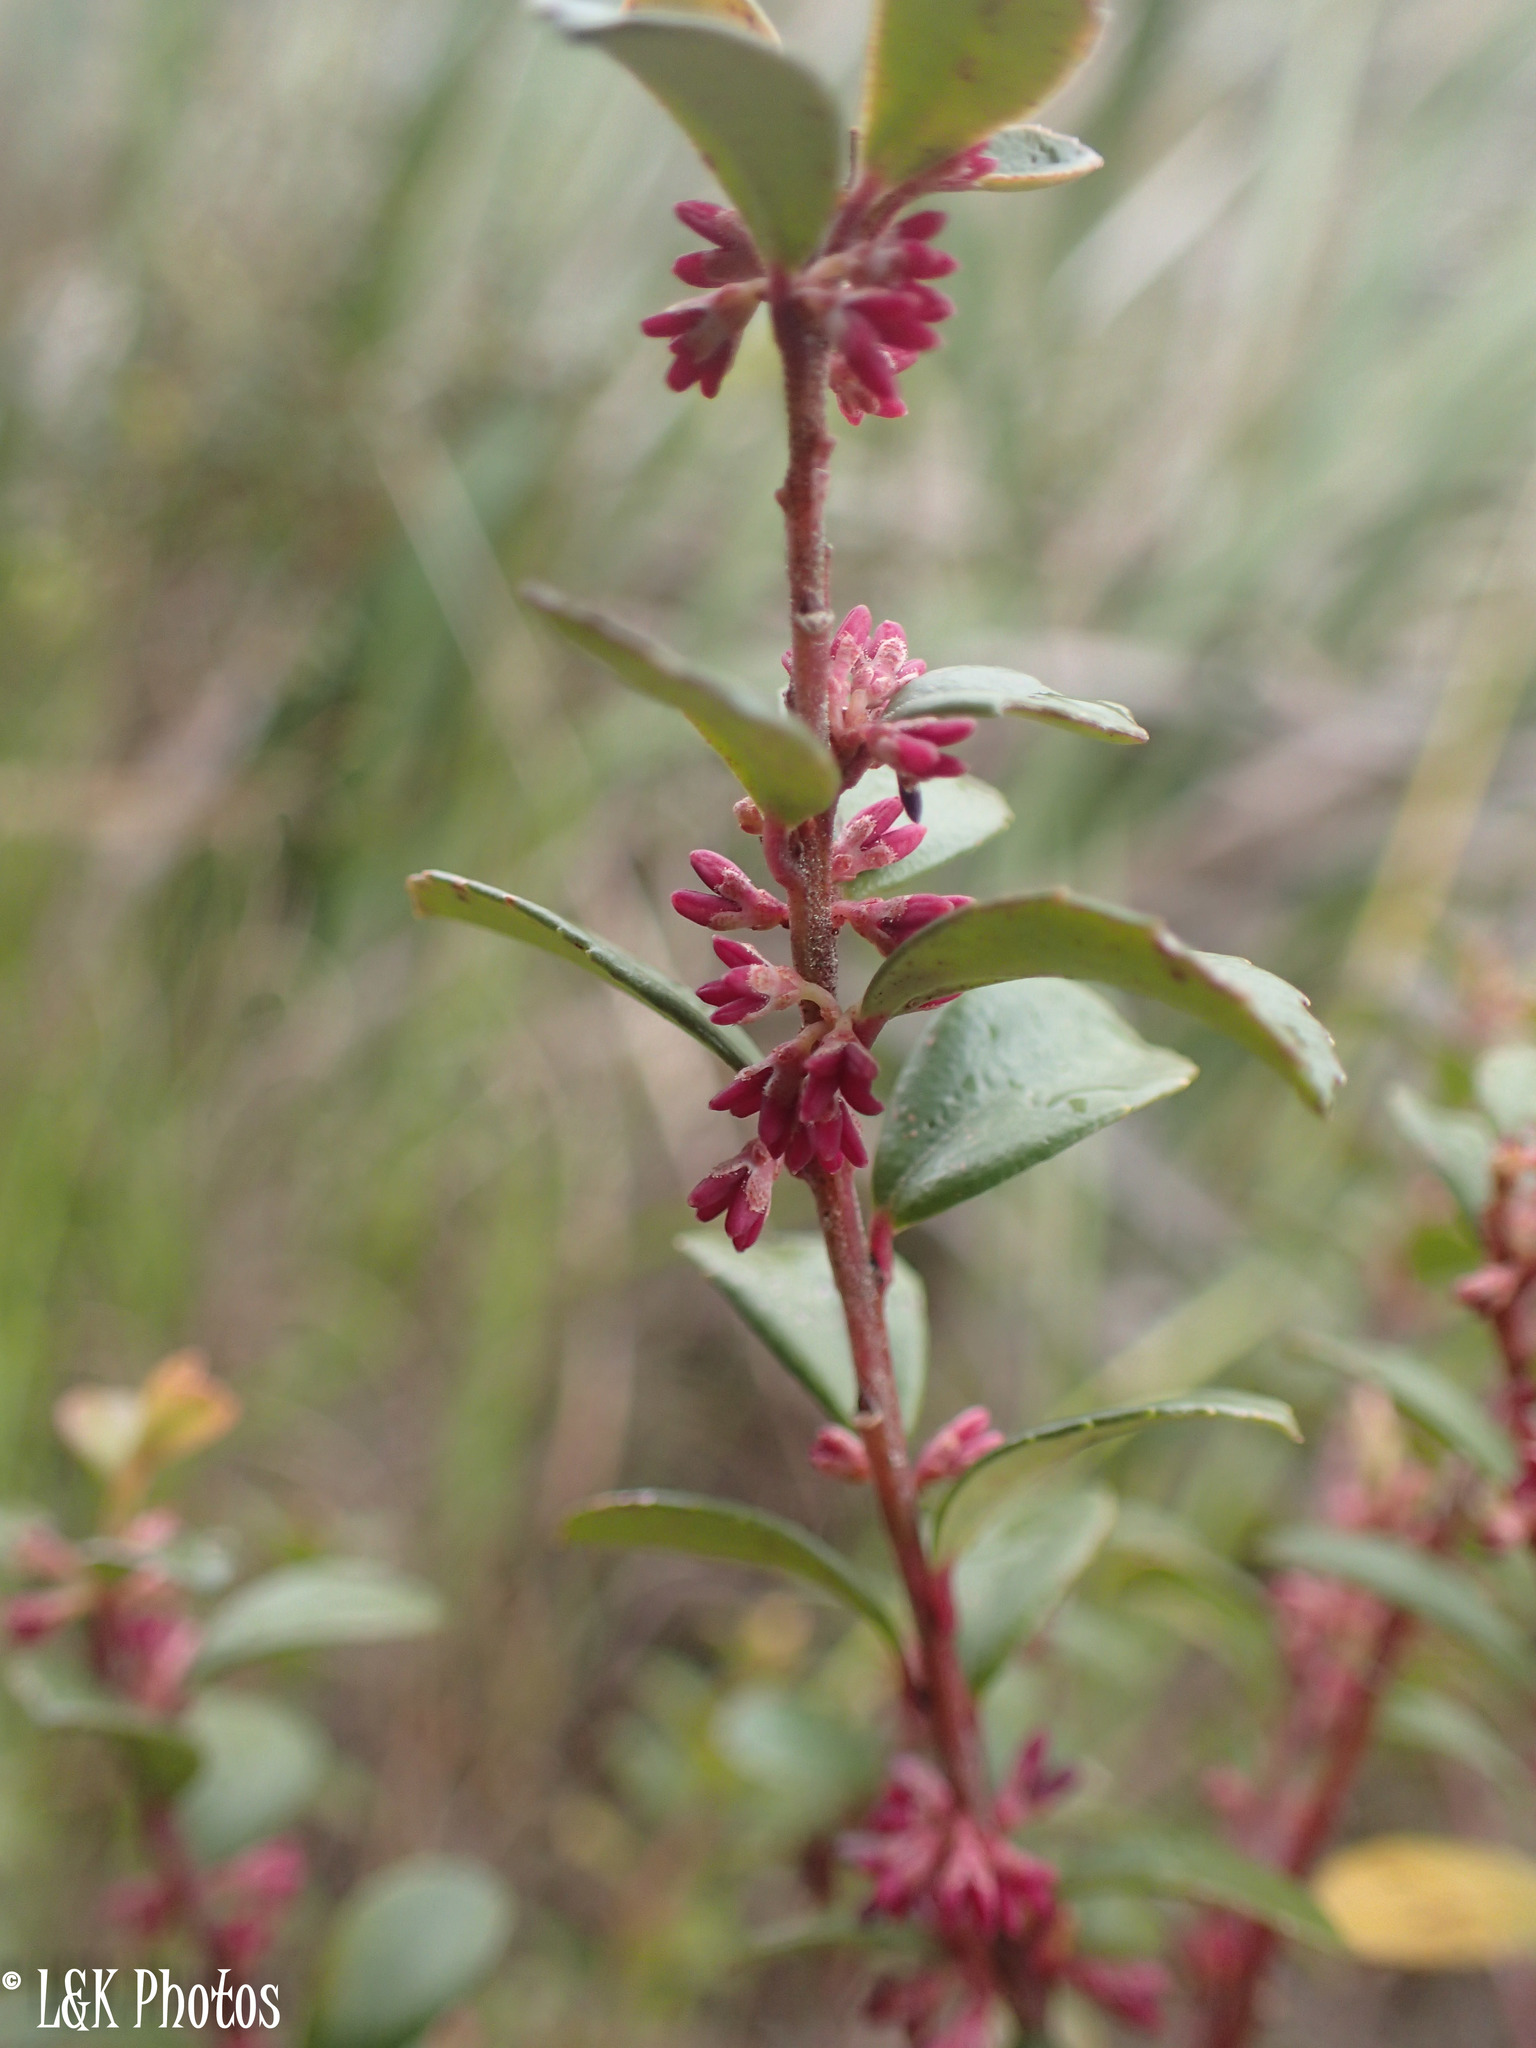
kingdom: Plantae
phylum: Tracheophyta
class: Magnoliopsida
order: Ericales
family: Primulaceae
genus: Myrsine
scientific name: Myrsine africana
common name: African-boxwood
